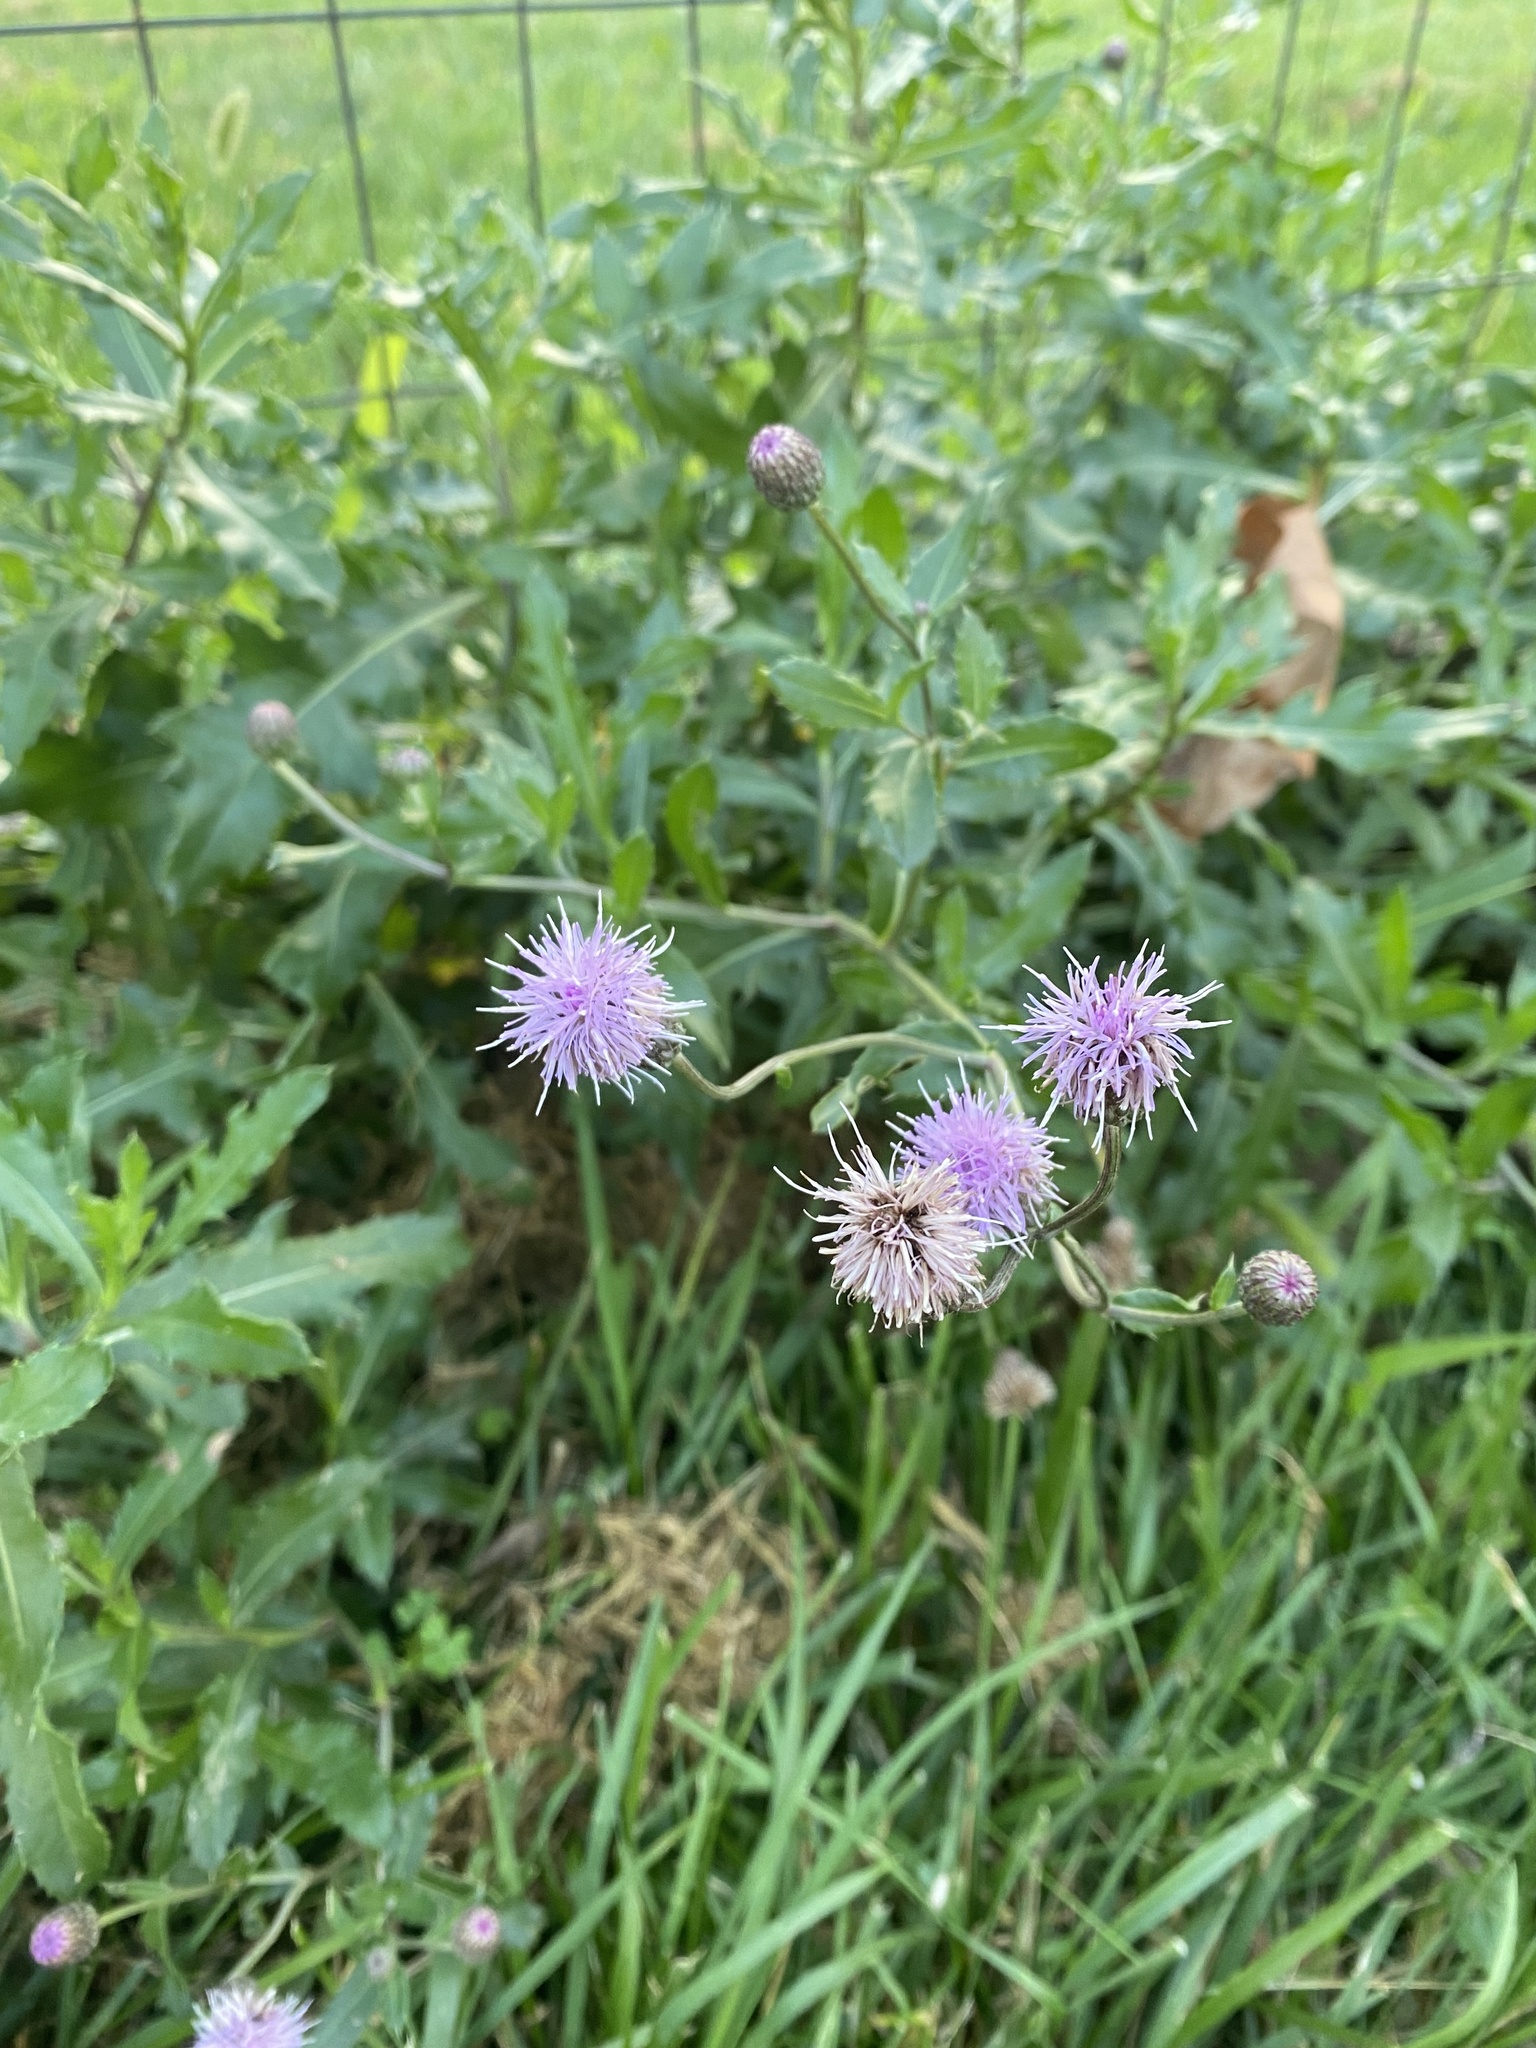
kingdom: Plantae
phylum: Tracheophyta
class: Magnoliopsida
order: Asterales
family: Asteraceae
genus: Cirsium
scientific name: Cirsium arvense
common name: Creeping thistle
